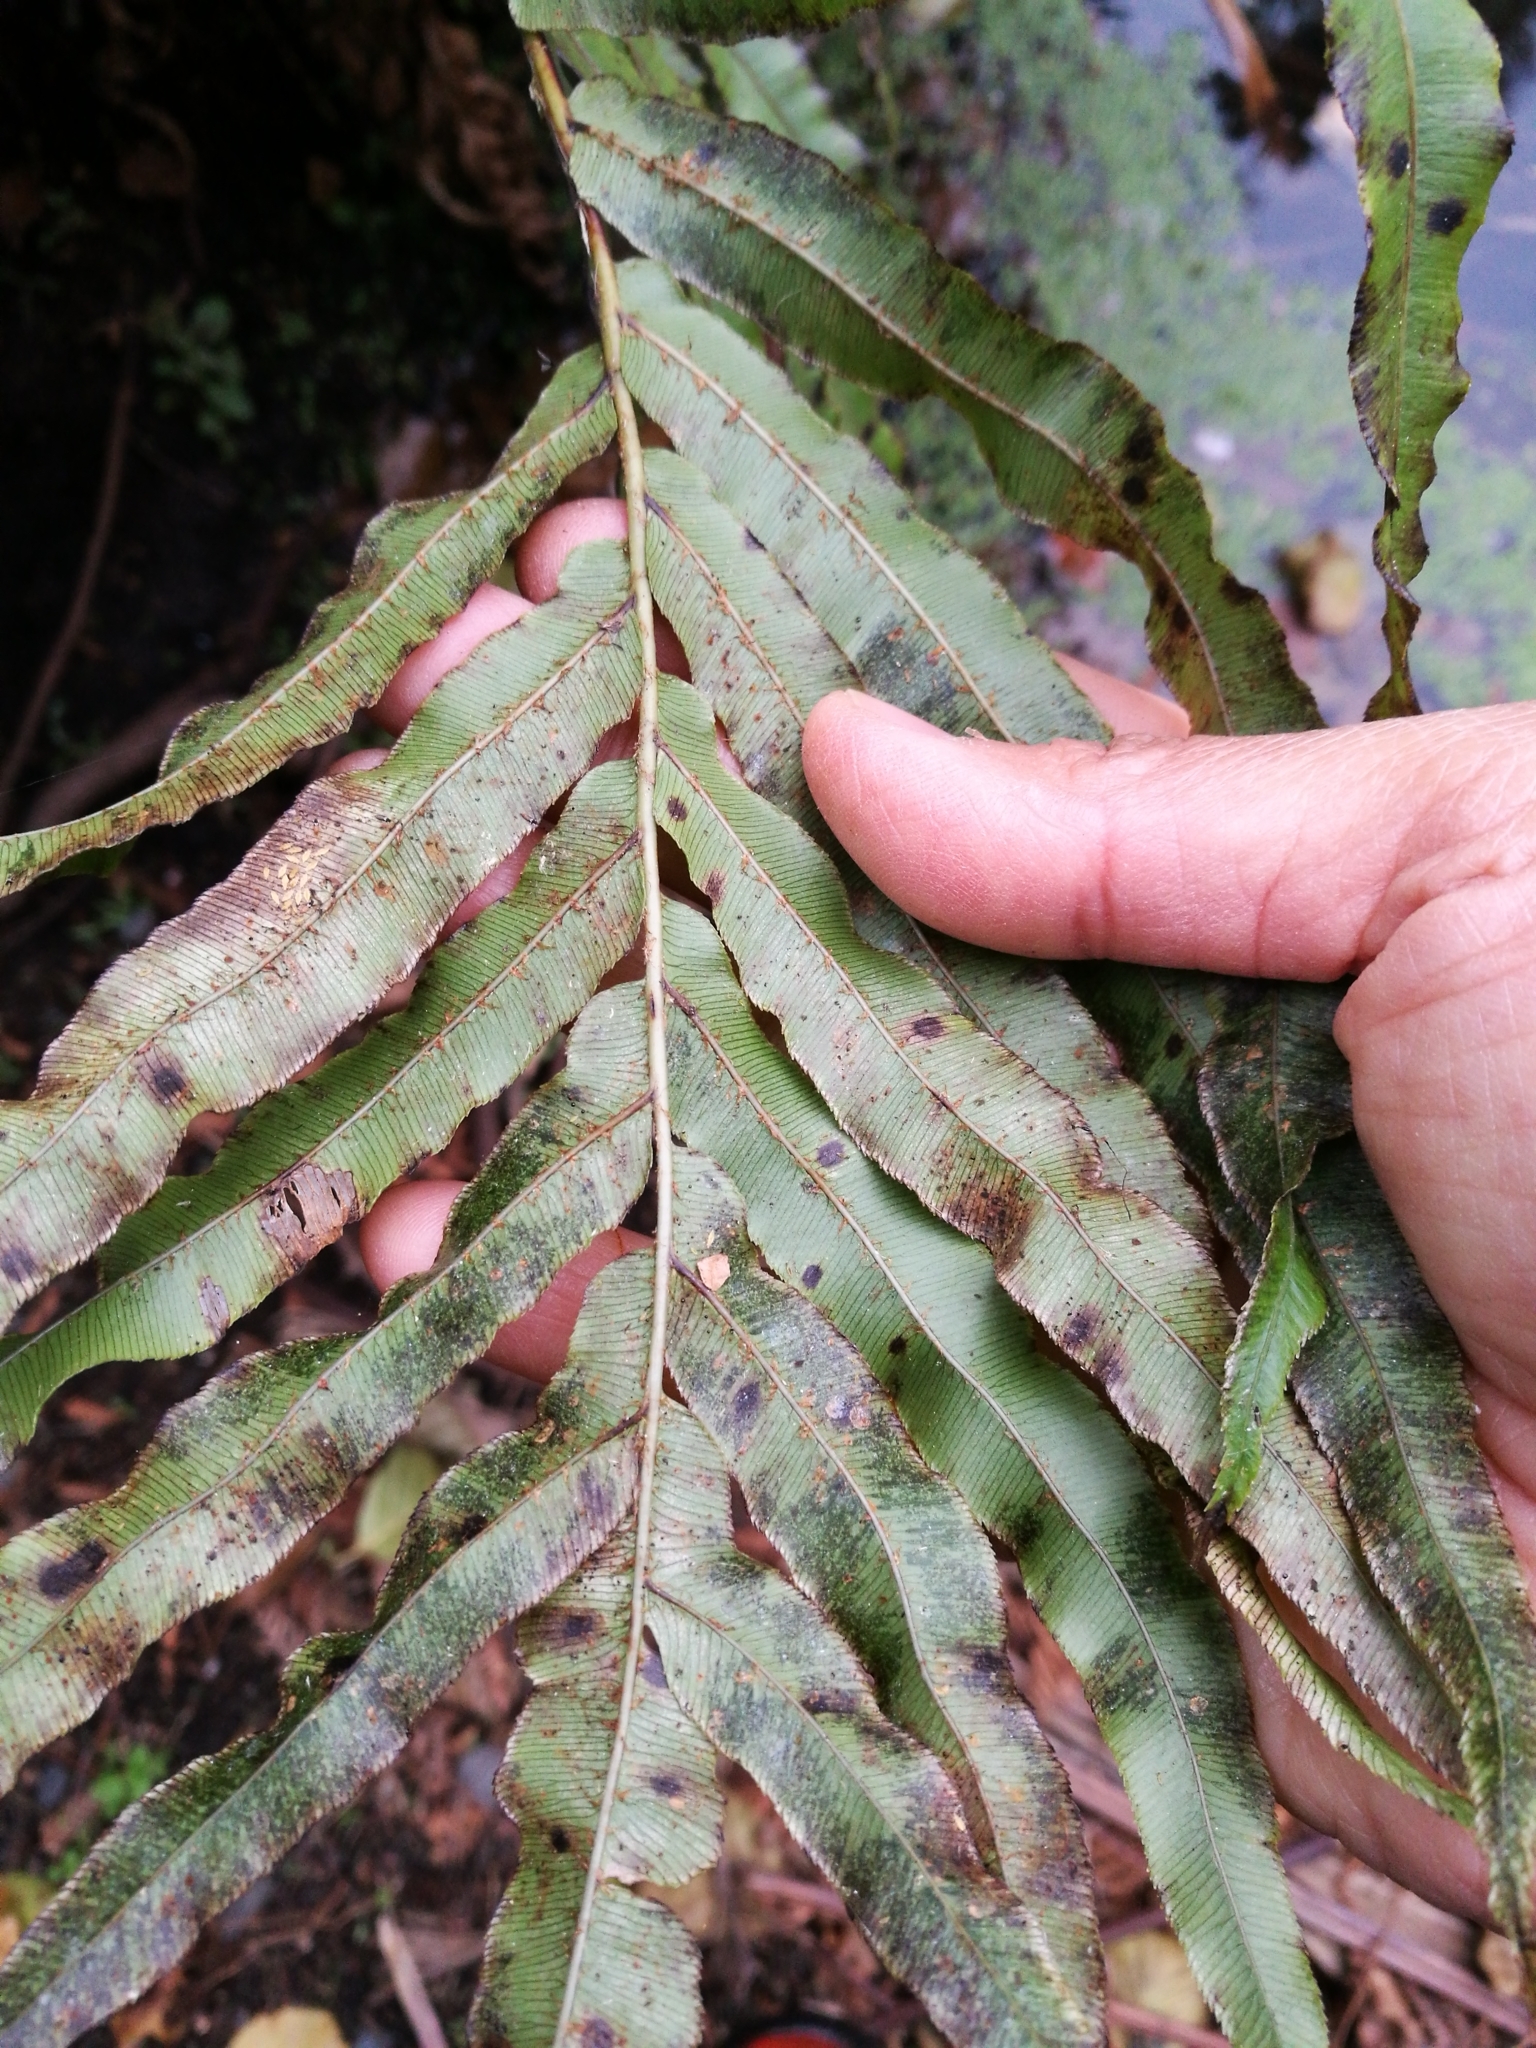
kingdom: Plantae
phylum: Tracheophyta
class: Polypodiopsida
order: Polypodiales
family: Blechnaceae
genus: Parablechnum
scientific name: Parablechnum novae-zelandiae
